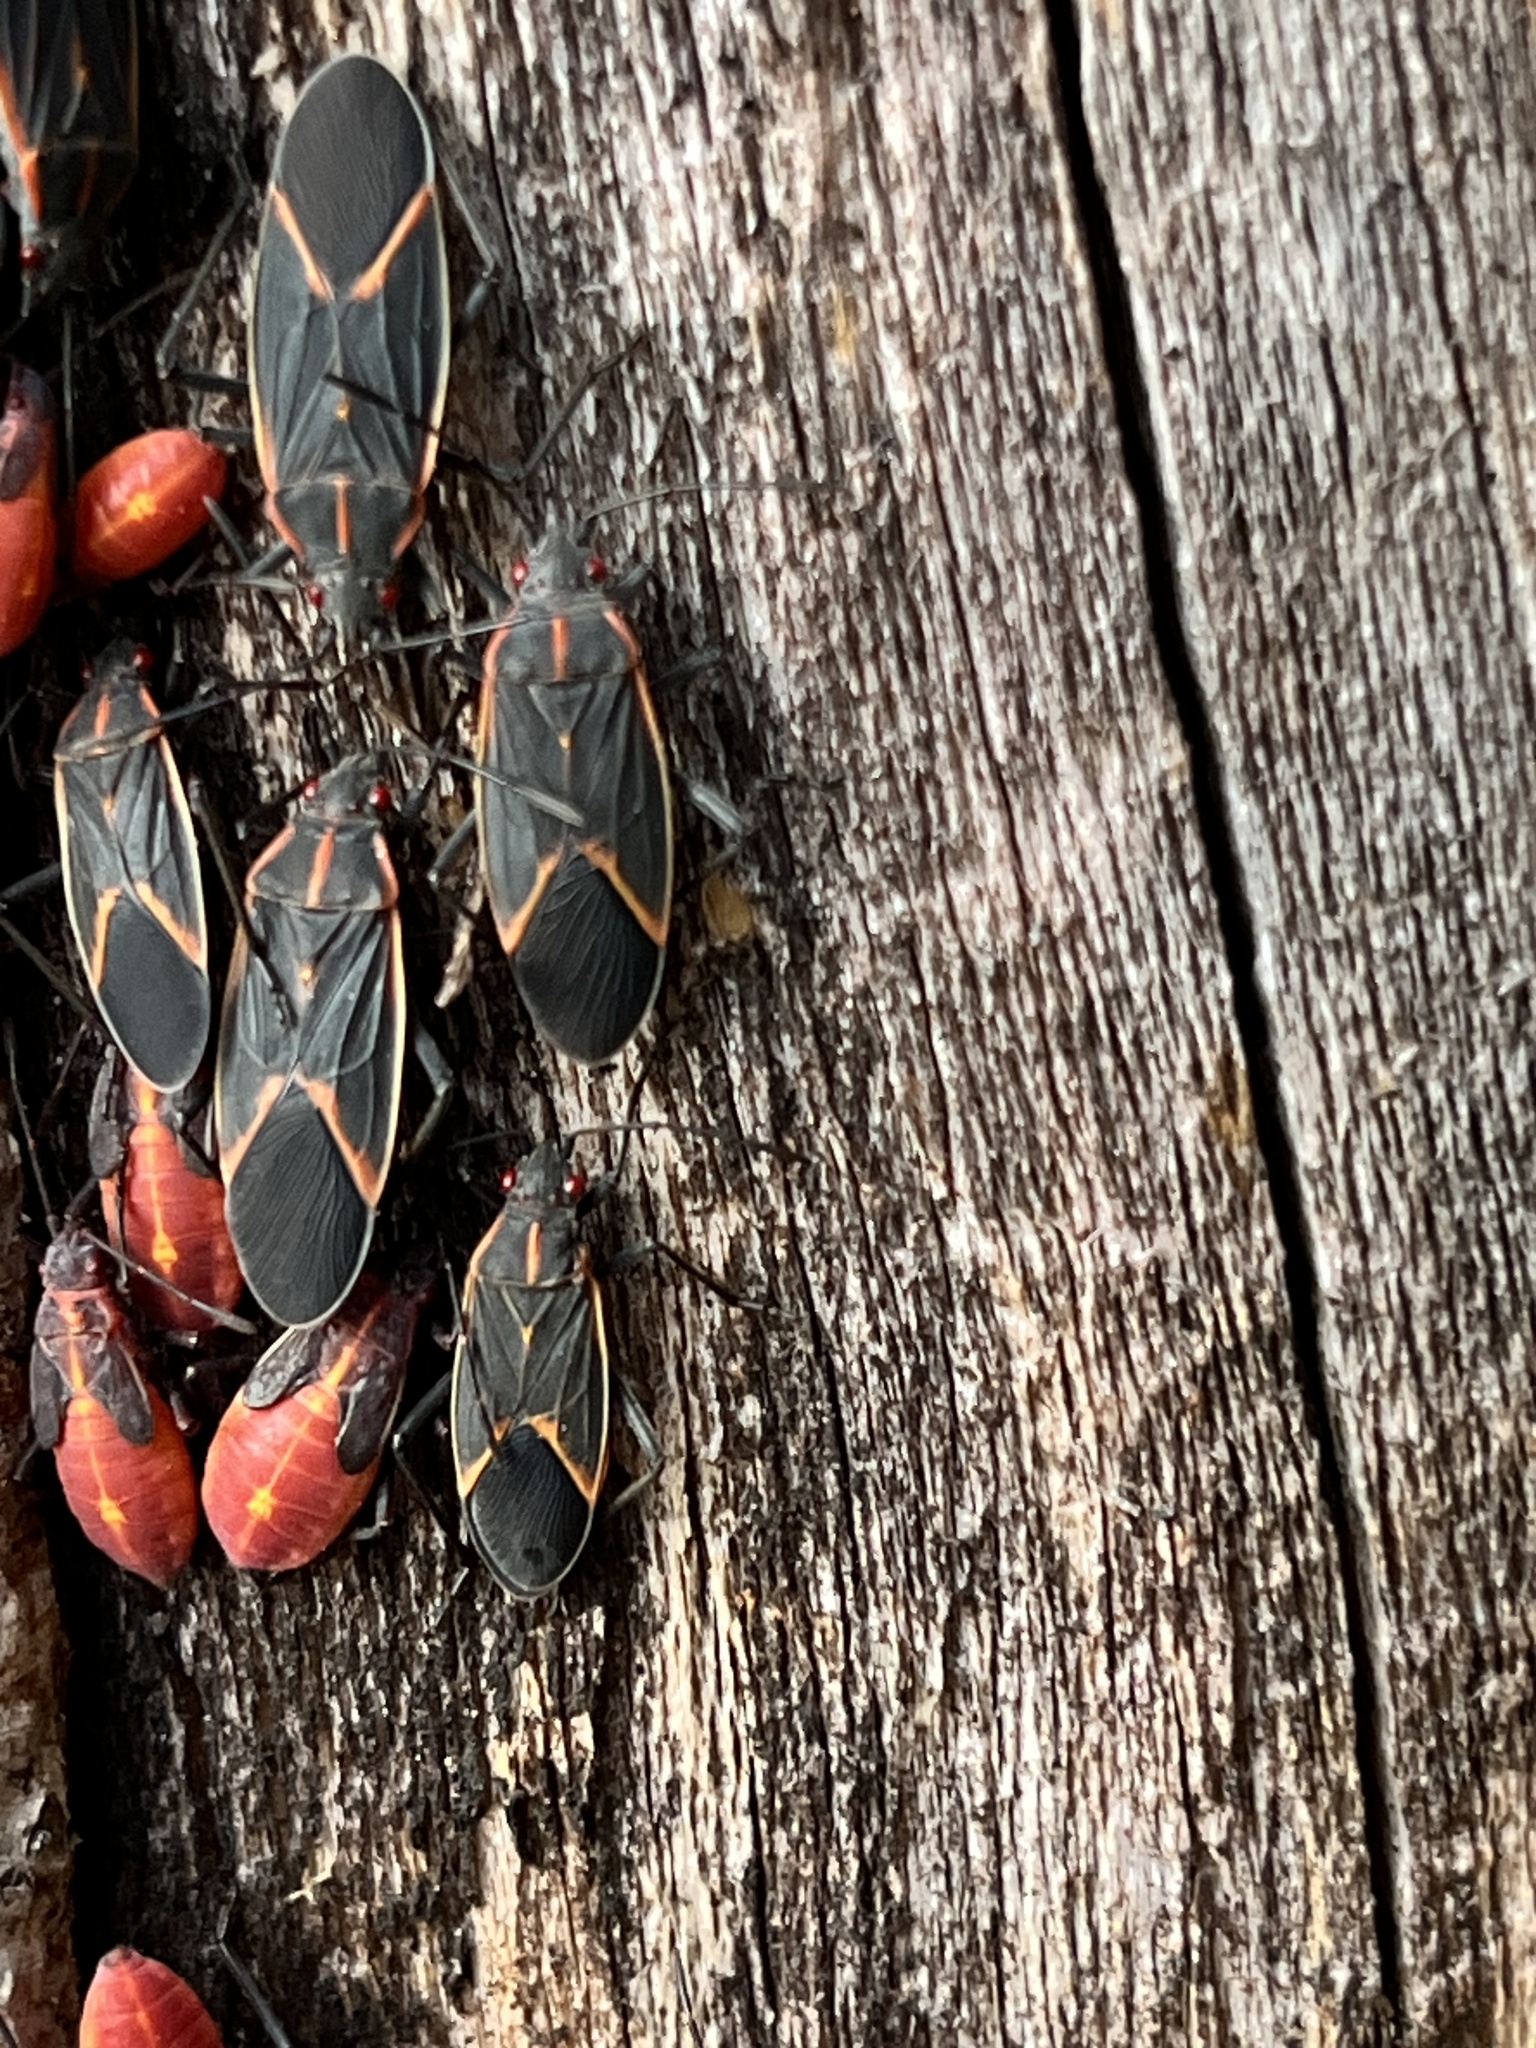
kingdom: Animalia
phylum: Arthropoda
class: Insecta
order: Hemiptera
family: Rhopalidae
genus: Boisea
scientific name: Boisea trivittata
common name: Boxelder bug
